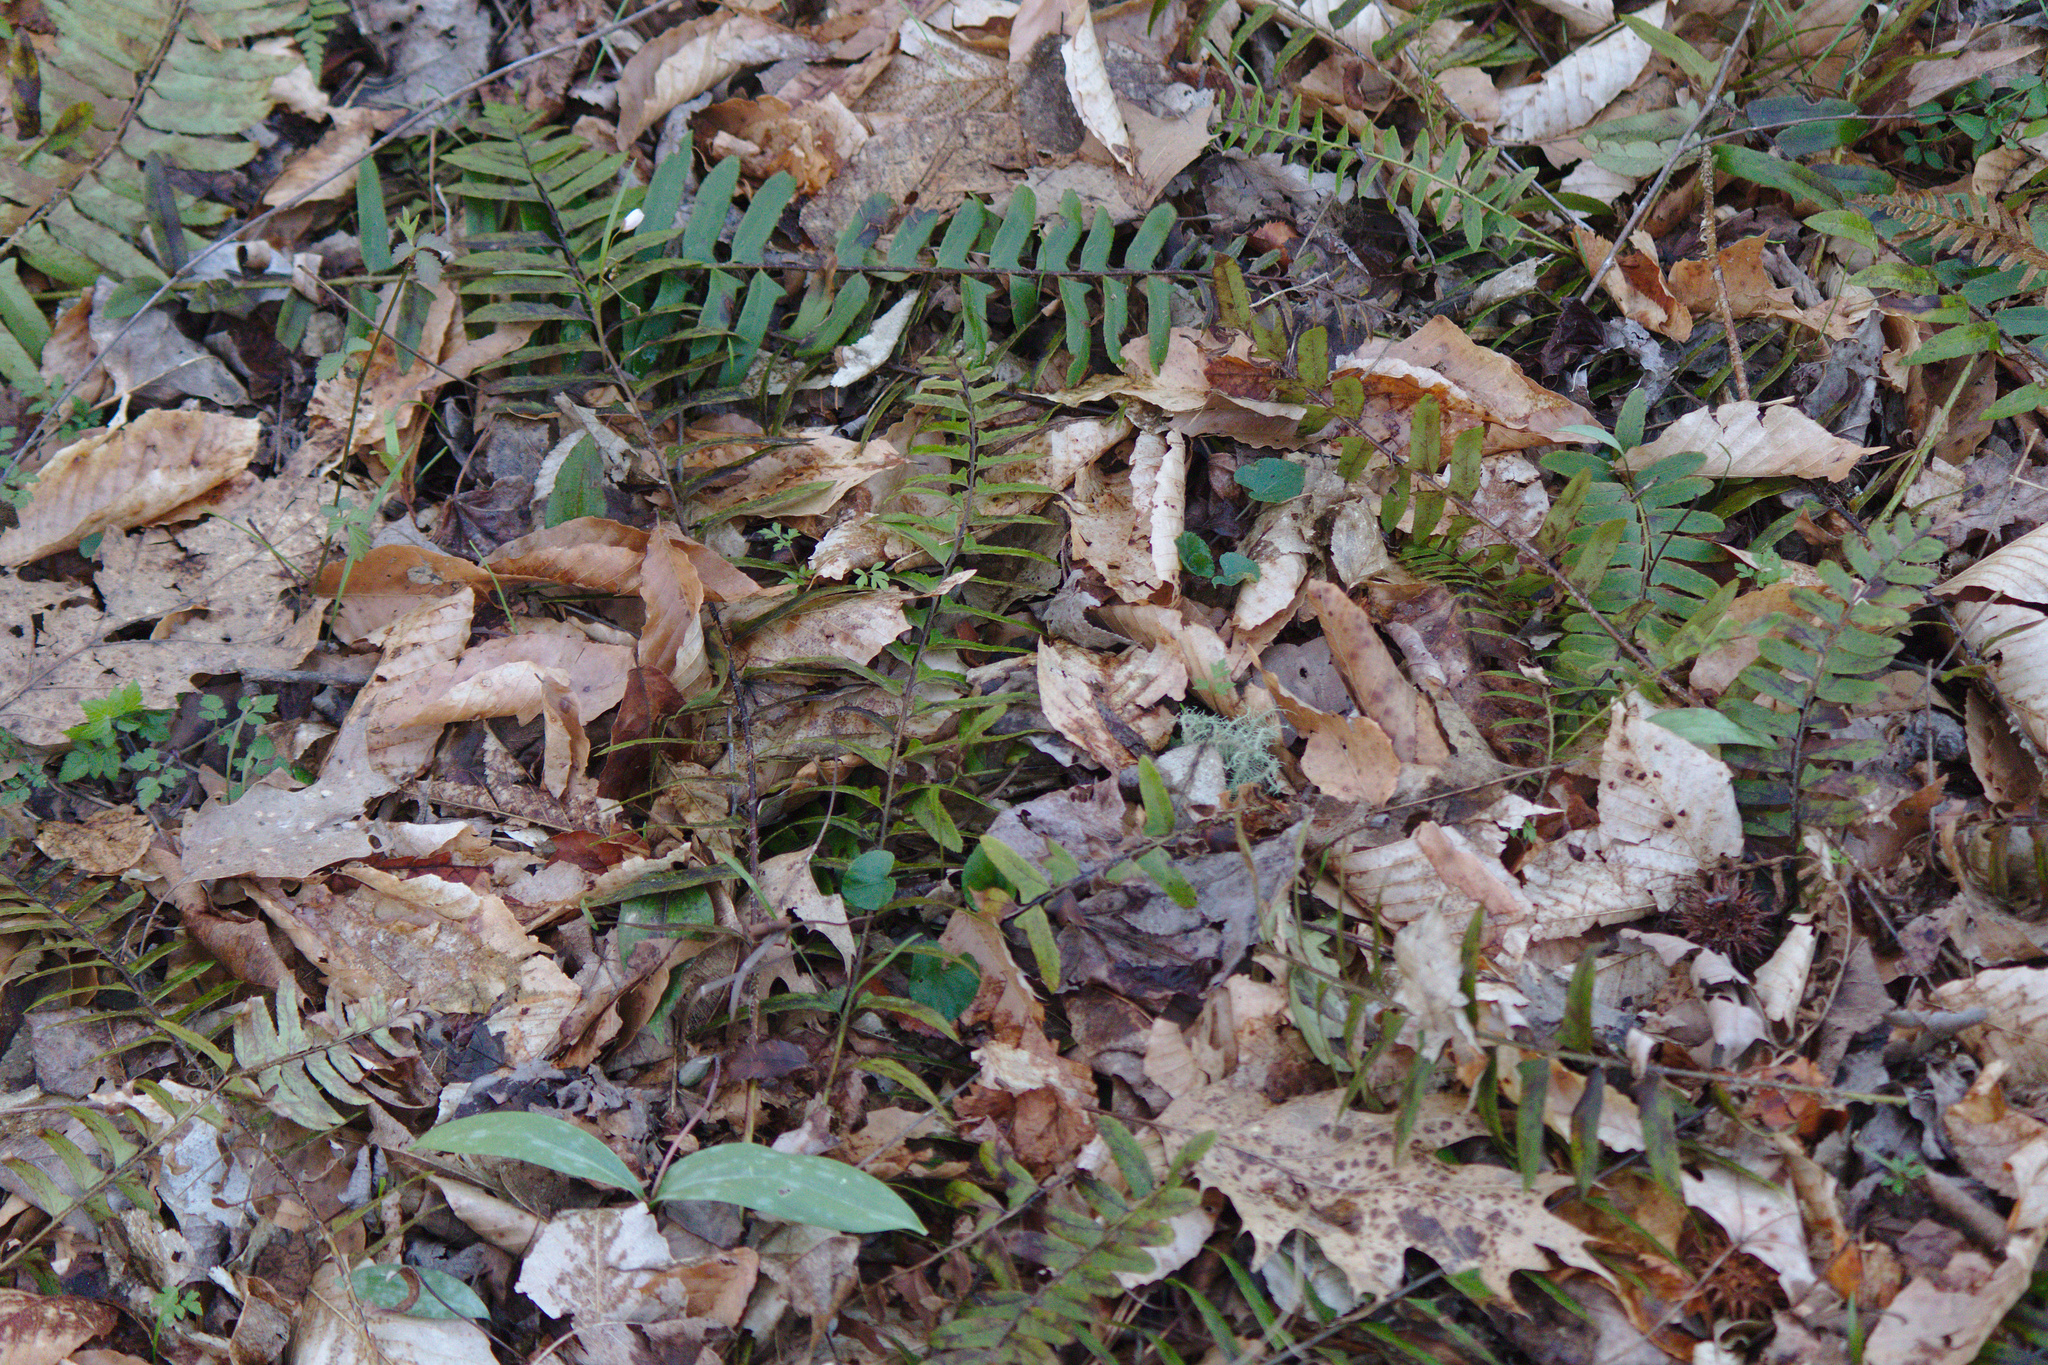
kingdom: Plantae
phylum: Tracheophyta
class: Polypodiopsida
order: Polypodiales
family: Dryopteridaceae
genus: Polystichum
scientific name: Polystichum acrostichoides
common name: Christmas fern
